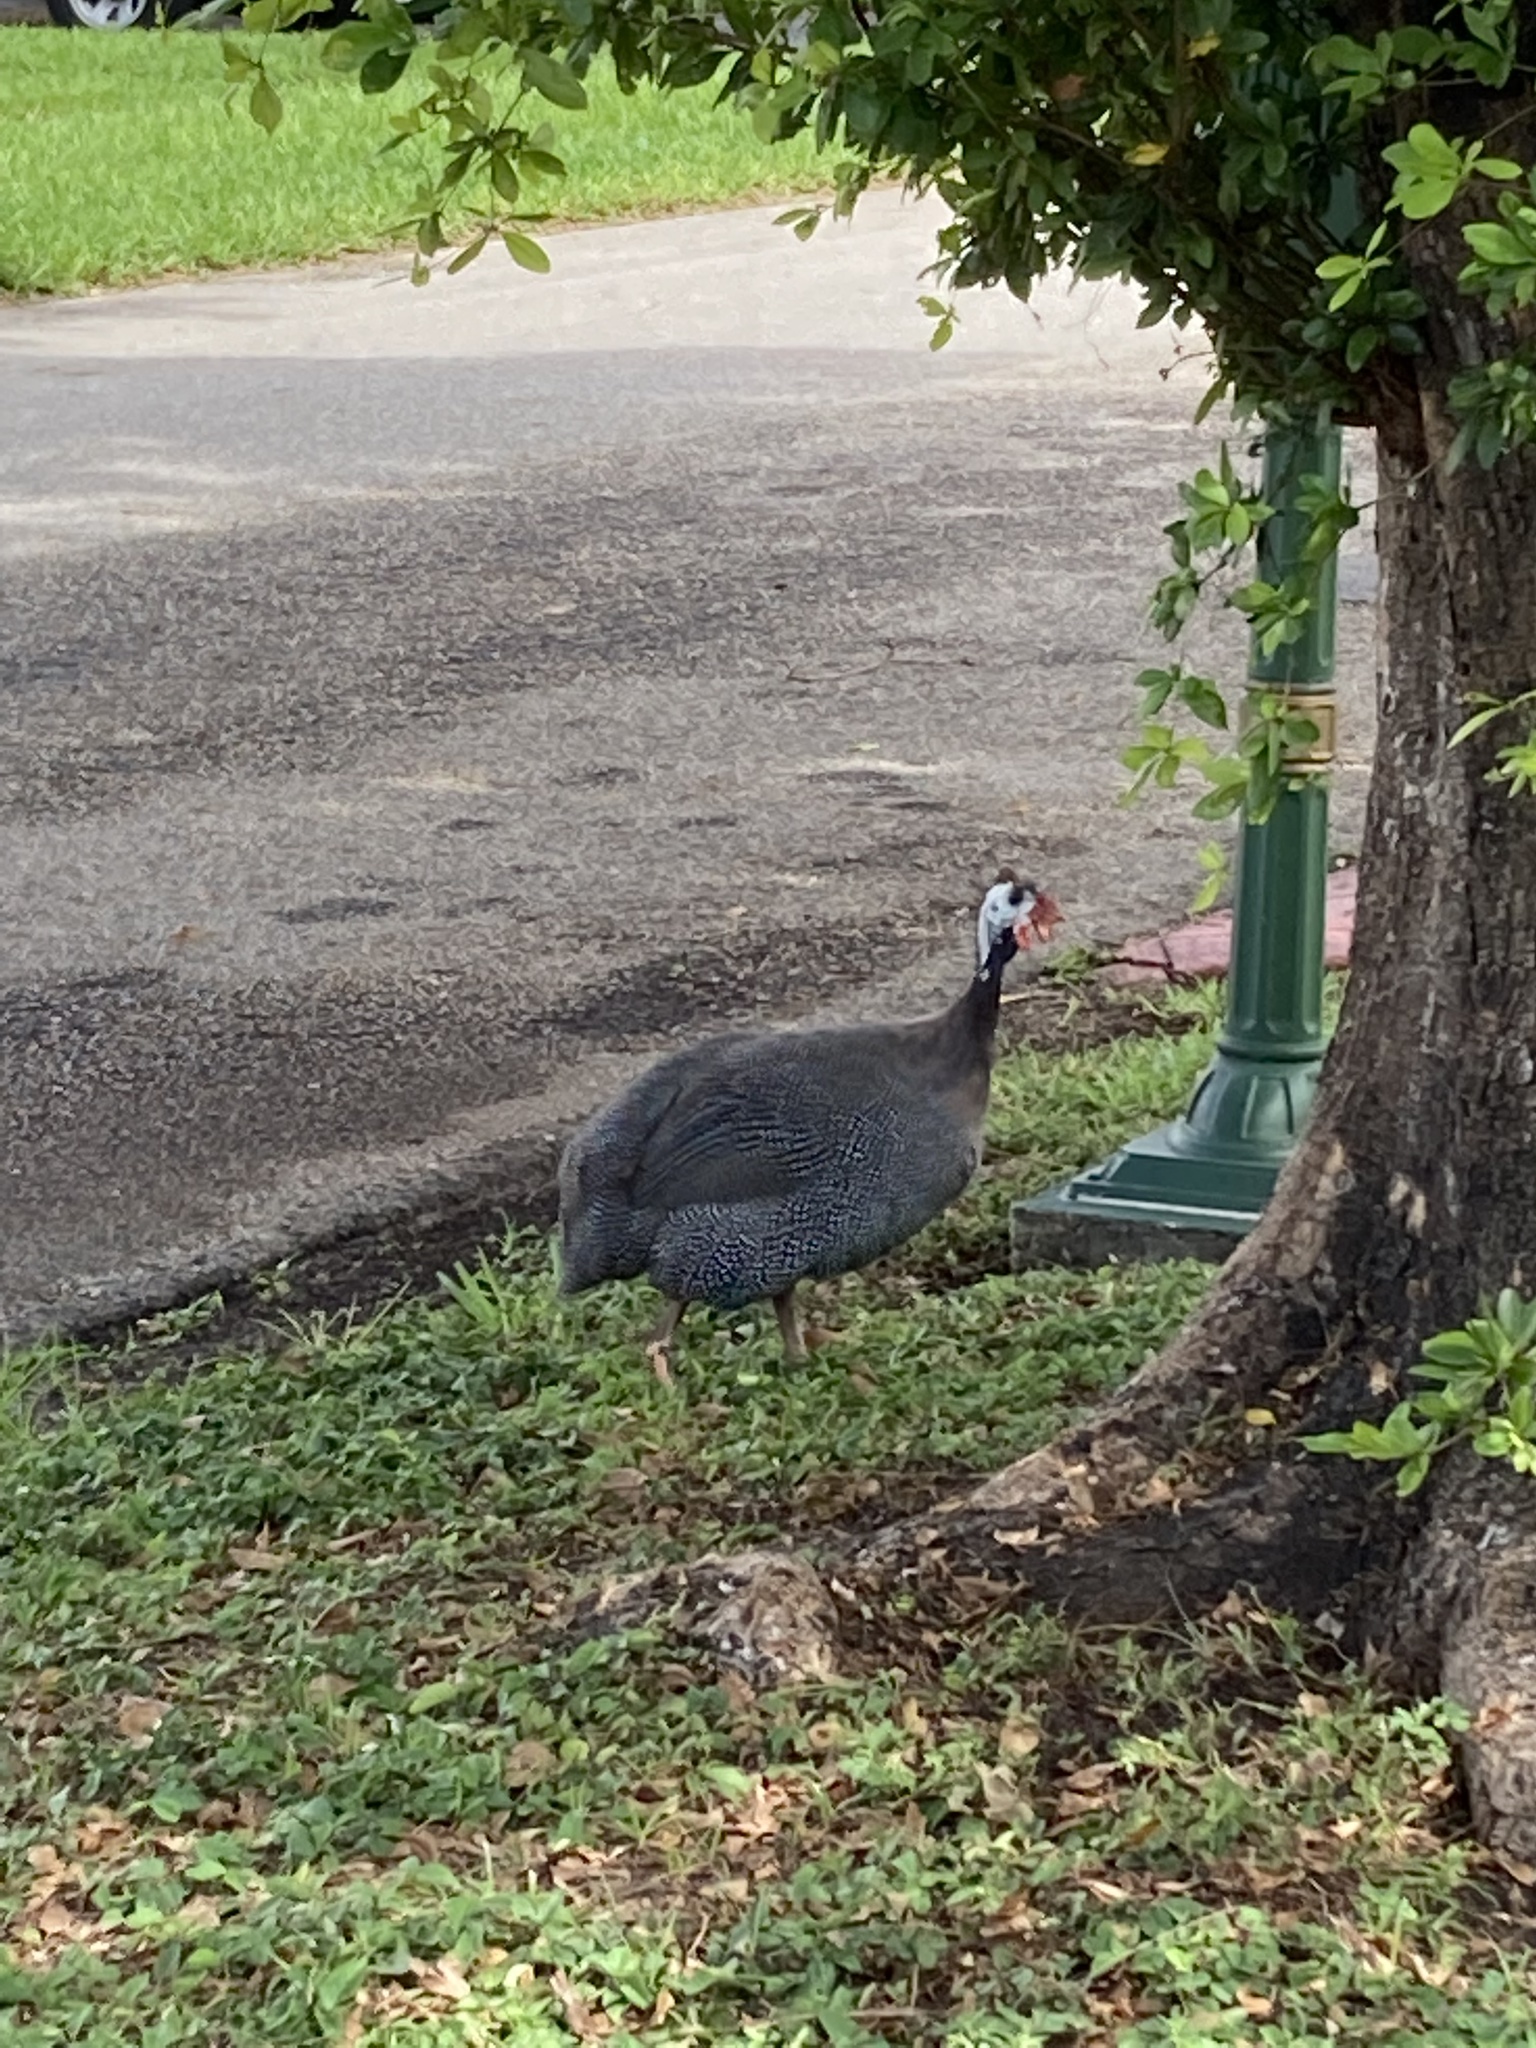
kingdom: Animalia
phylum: Chordata
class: Aves
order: Galliformes
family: Numididae
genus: Numida
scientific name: Numida meleagris
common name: Helmeted guineafowl
